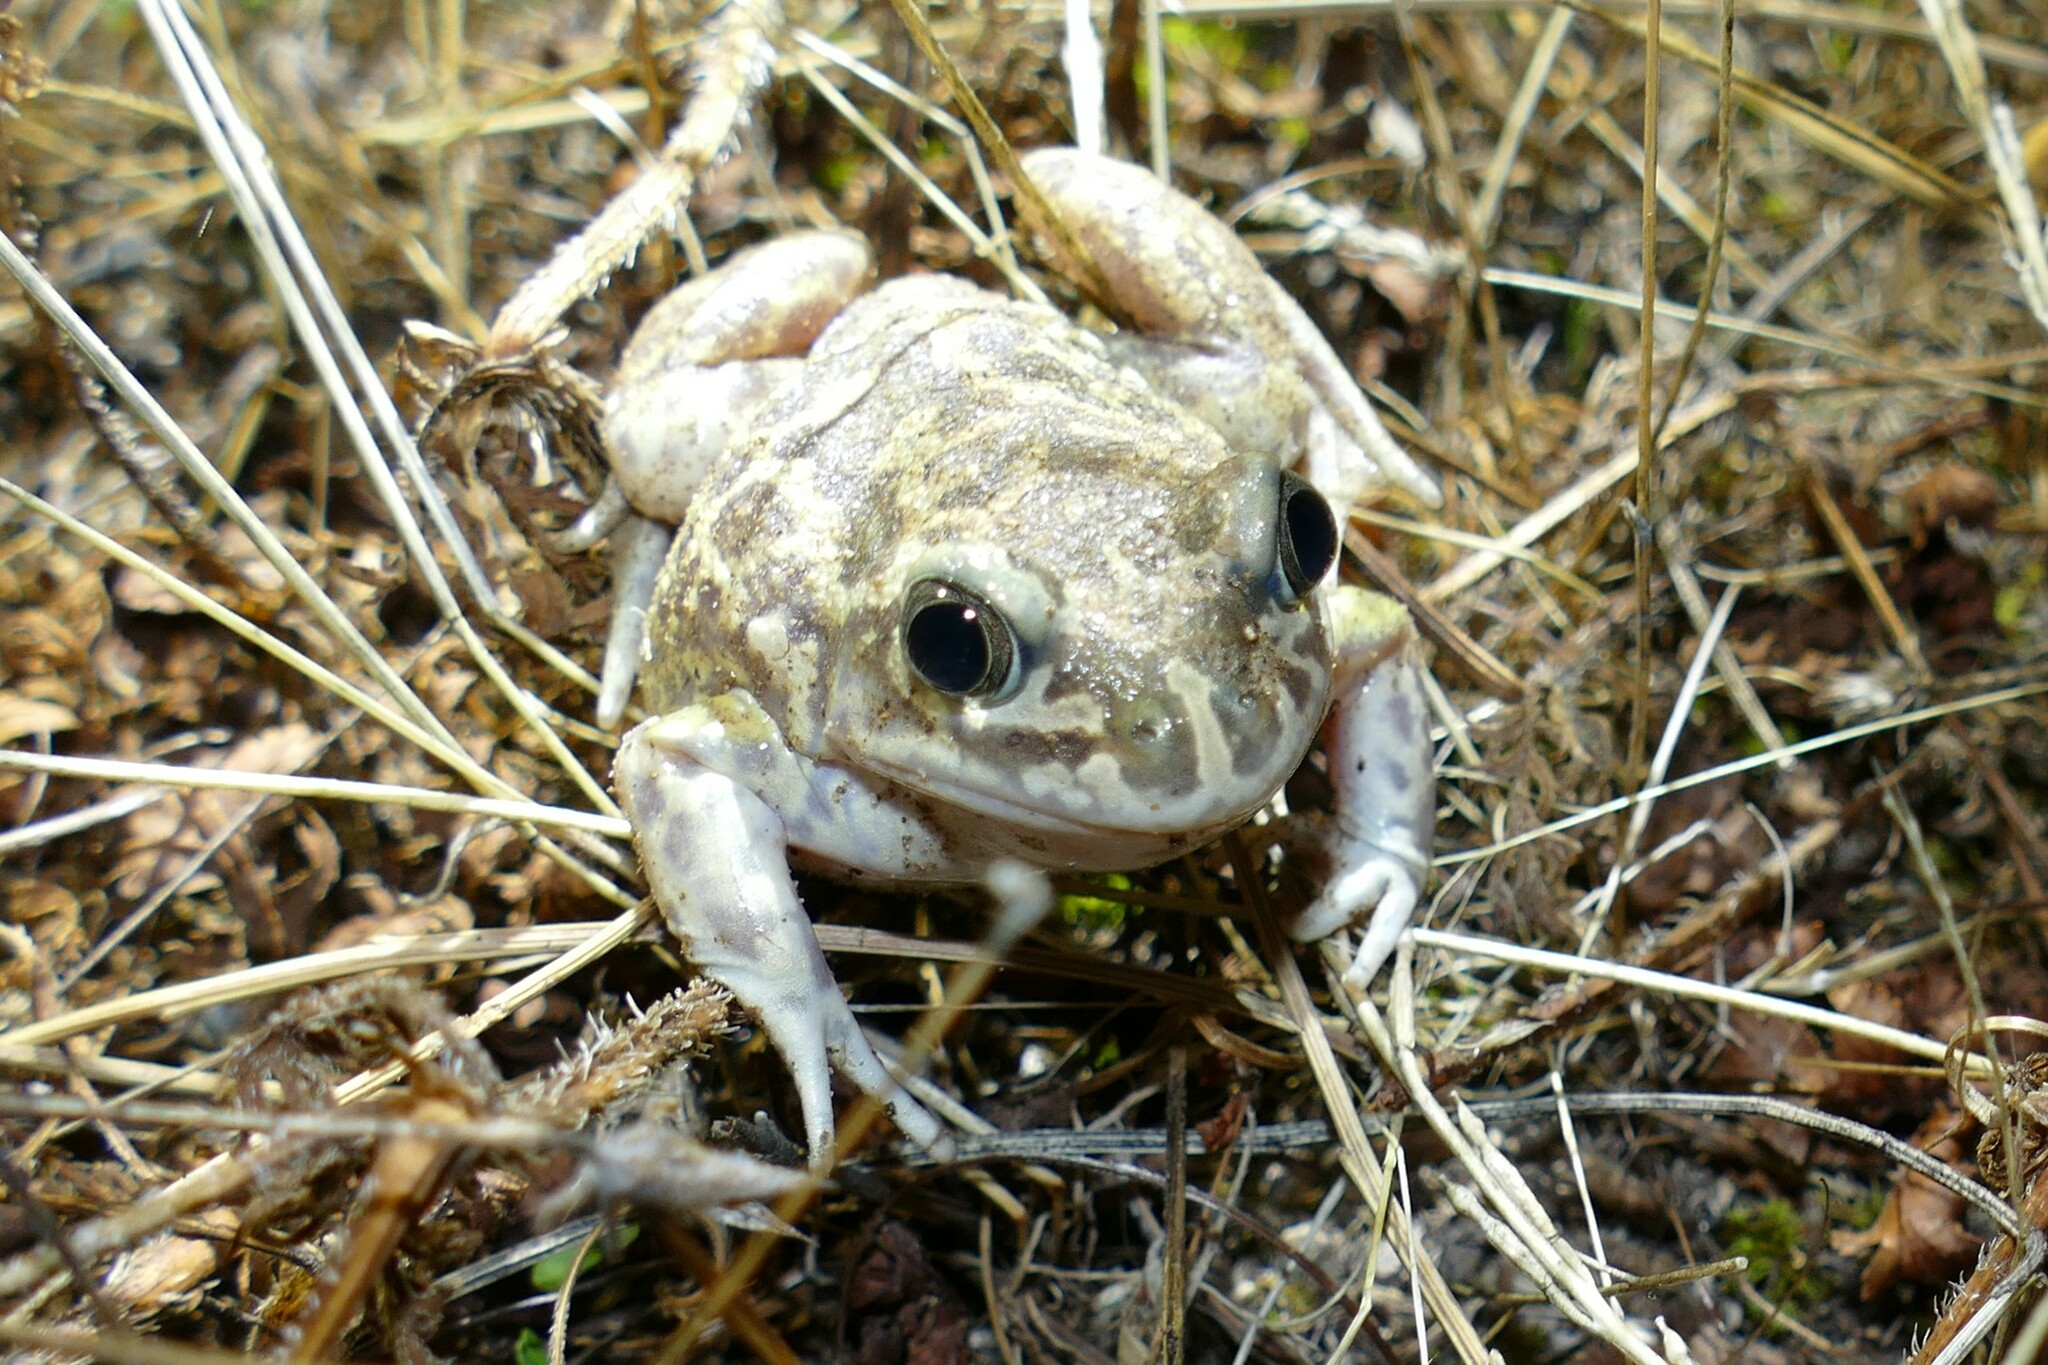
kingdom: Animalia
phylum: Chordata
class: Amphibia
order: Anura
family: Pelobatidae
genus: Pelobates
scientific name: Pelobates cultripes
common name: Western spadefoot
